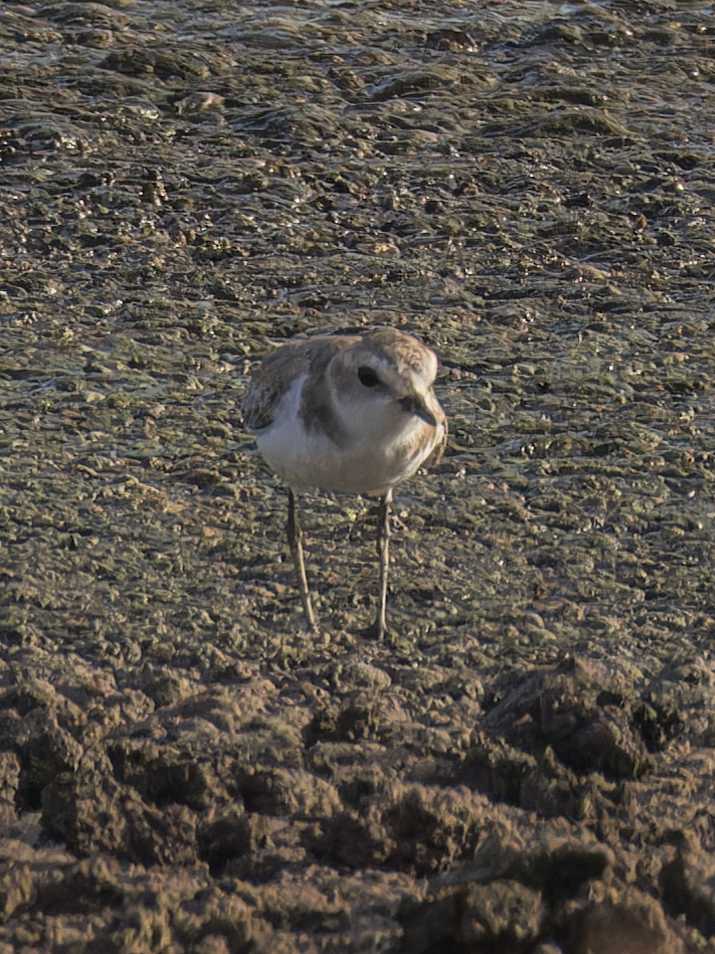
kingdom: Animalia
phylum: Chordata
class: Aves
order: Charadriiformes
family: Charadriidae
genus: Charadrius
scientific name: Charadrius alexandrinus
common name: Kentish plover
